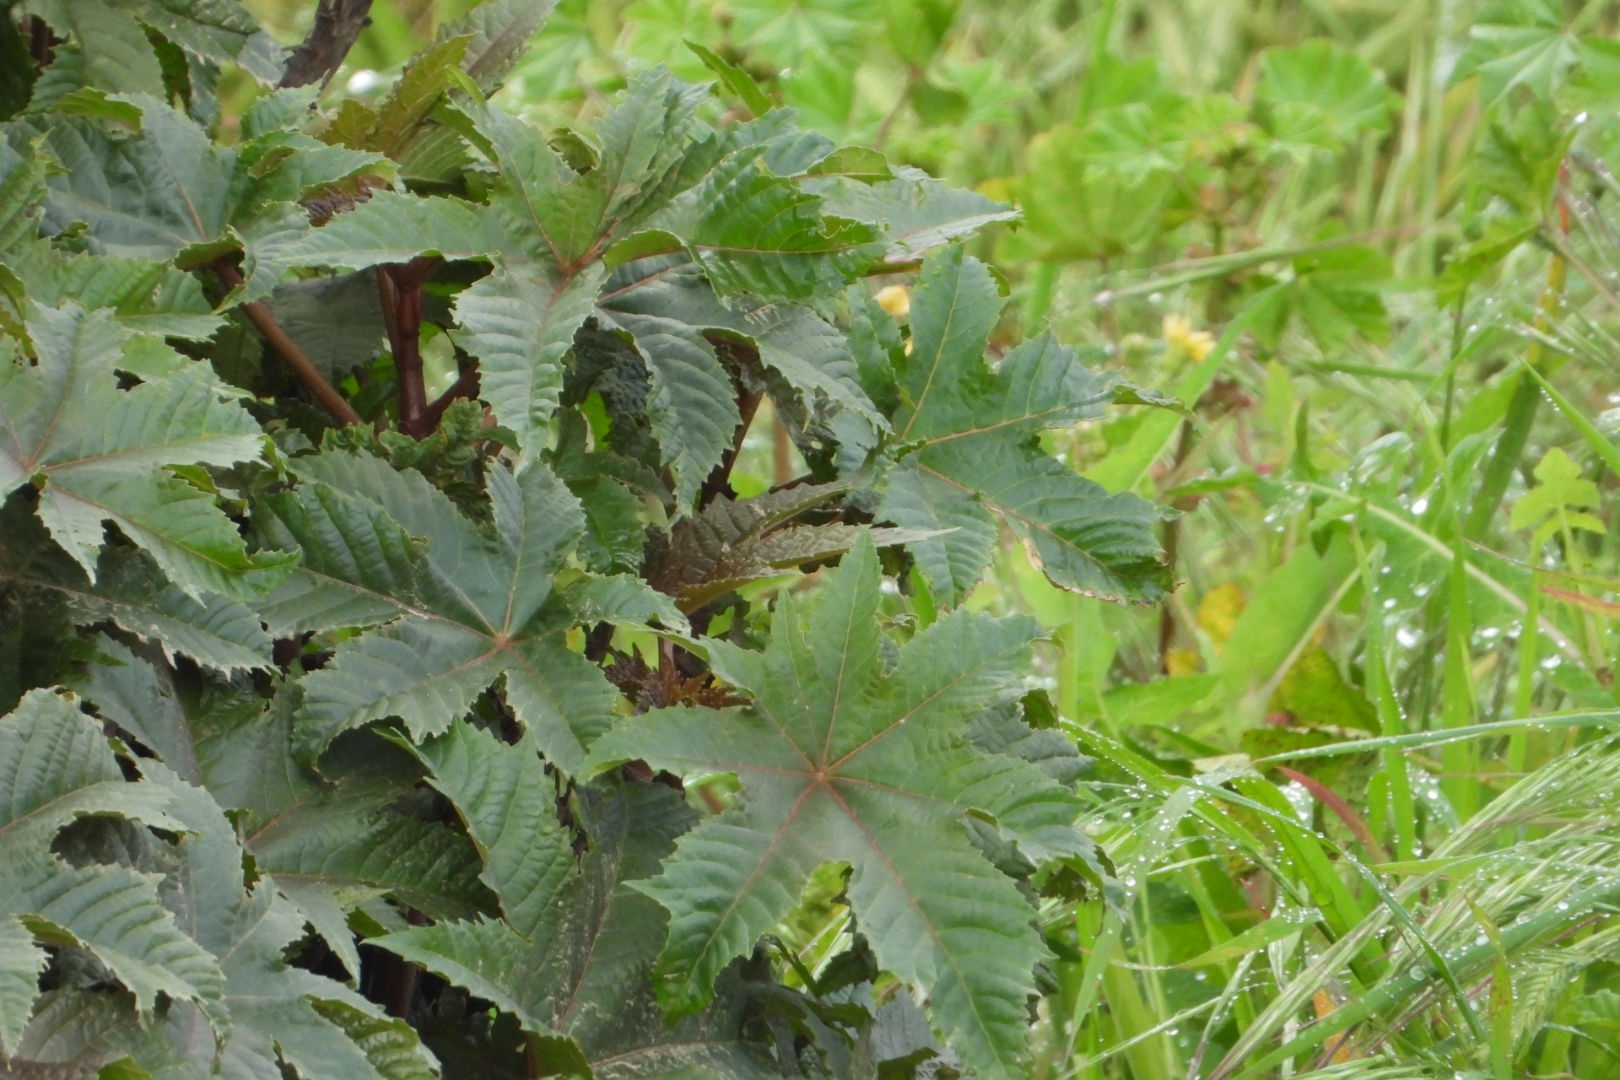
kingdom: Plantae
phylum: Tracheophyta
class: Magnoliopsida
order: Malpighiales
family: Euphorbiaceae
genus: Ricinus
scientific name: Ricinus communis
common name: Castor-oil-plant
